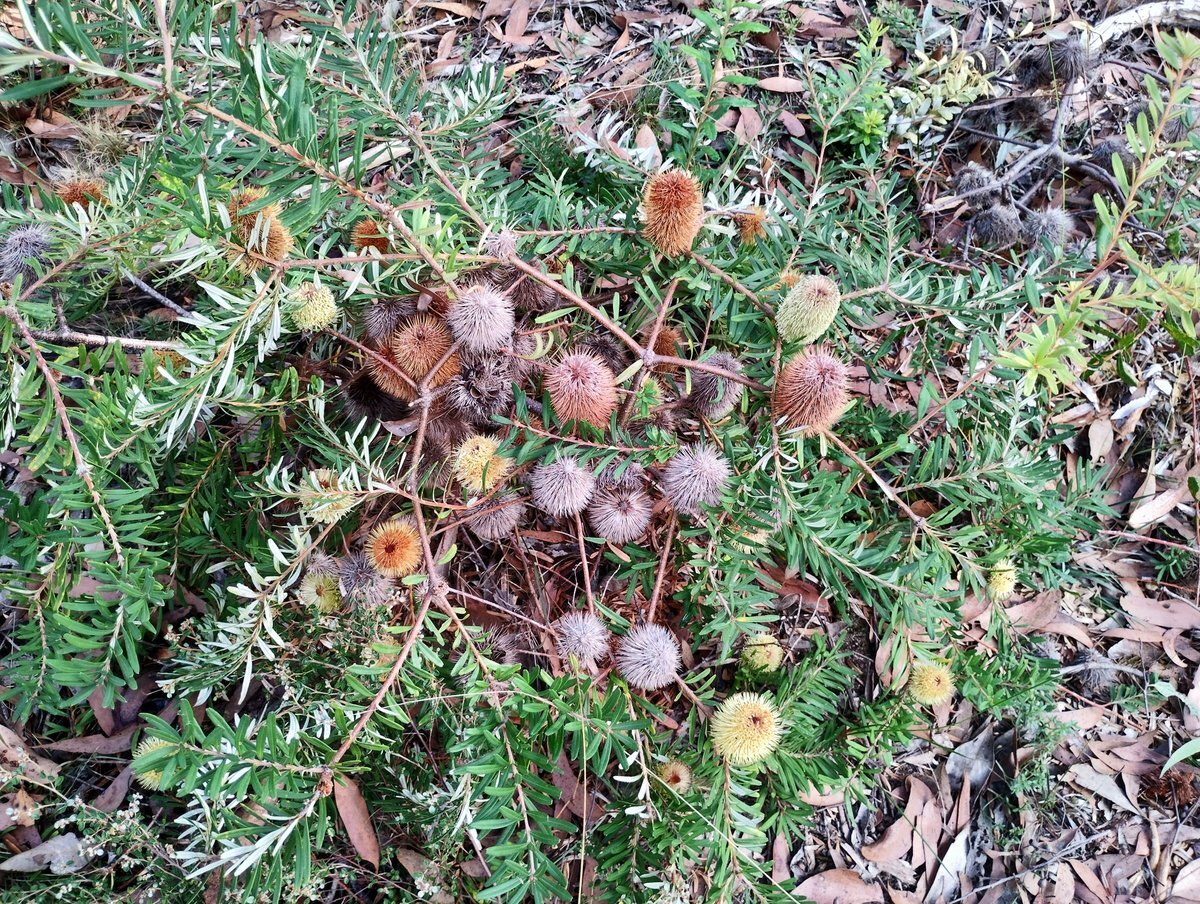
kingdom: Plantae
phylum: Tracheophyta
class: Magnoliopsida
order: Proteales
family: Proteaceae
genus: Banksia
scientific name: Banksia marginata
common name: Silver banksia
